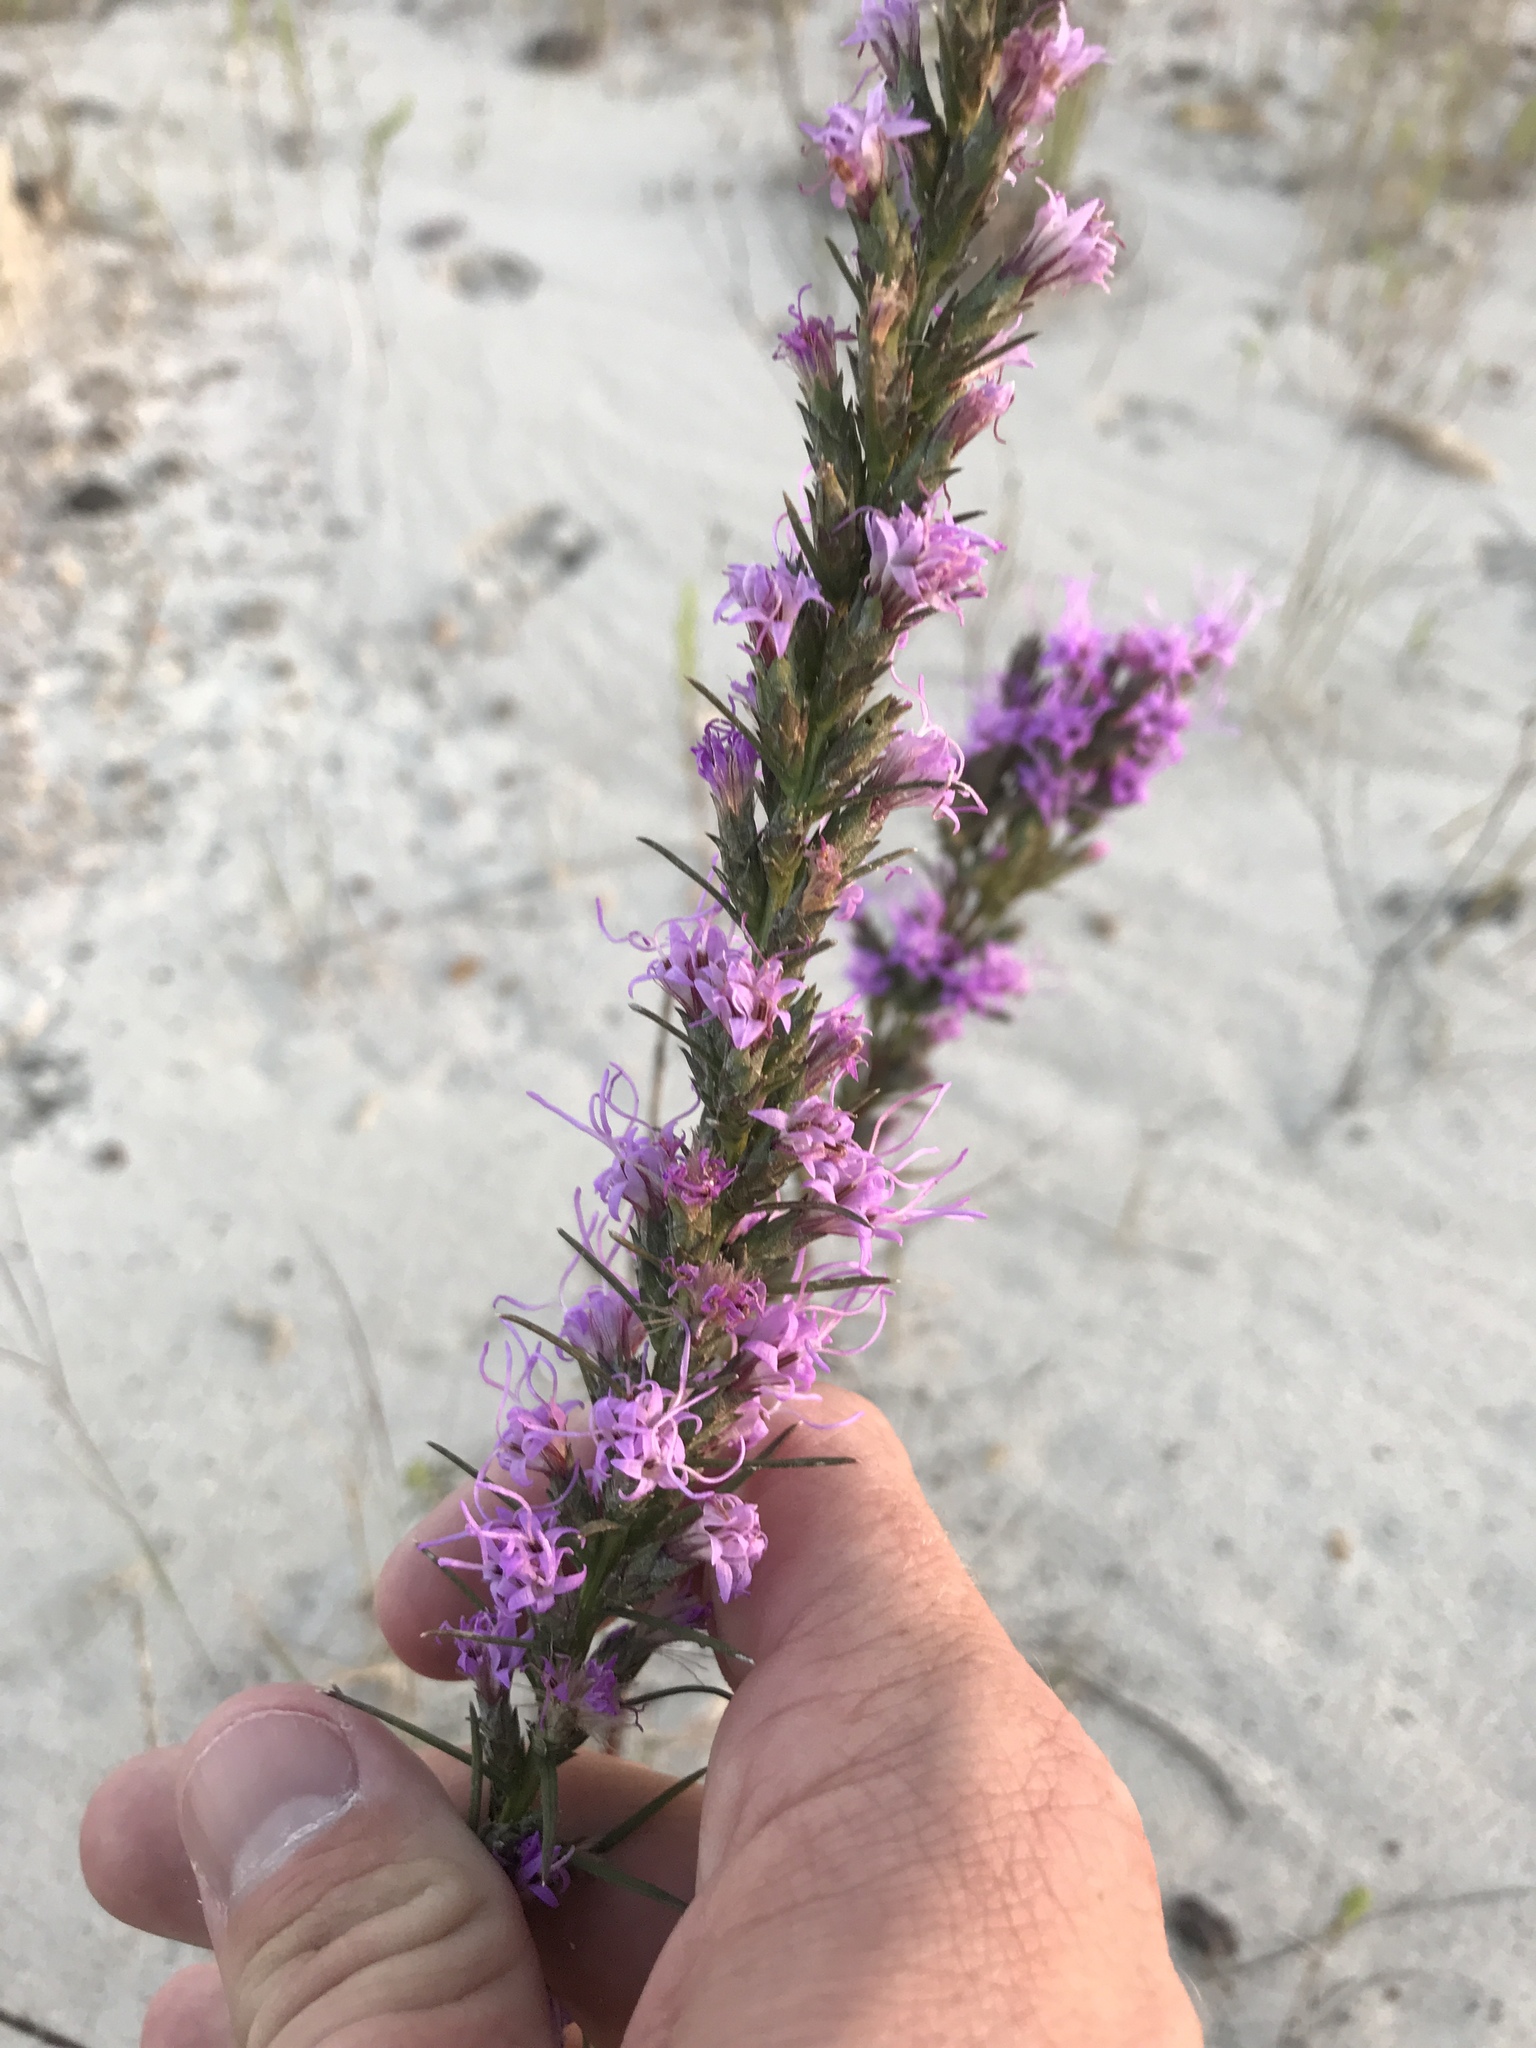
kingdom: Plantae
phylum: Tracheophyta
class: Magnoliopsida
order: Asterales
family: Asteraceae
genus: Liatris
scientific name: Liatris punctata
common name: Dotted gayfeather
